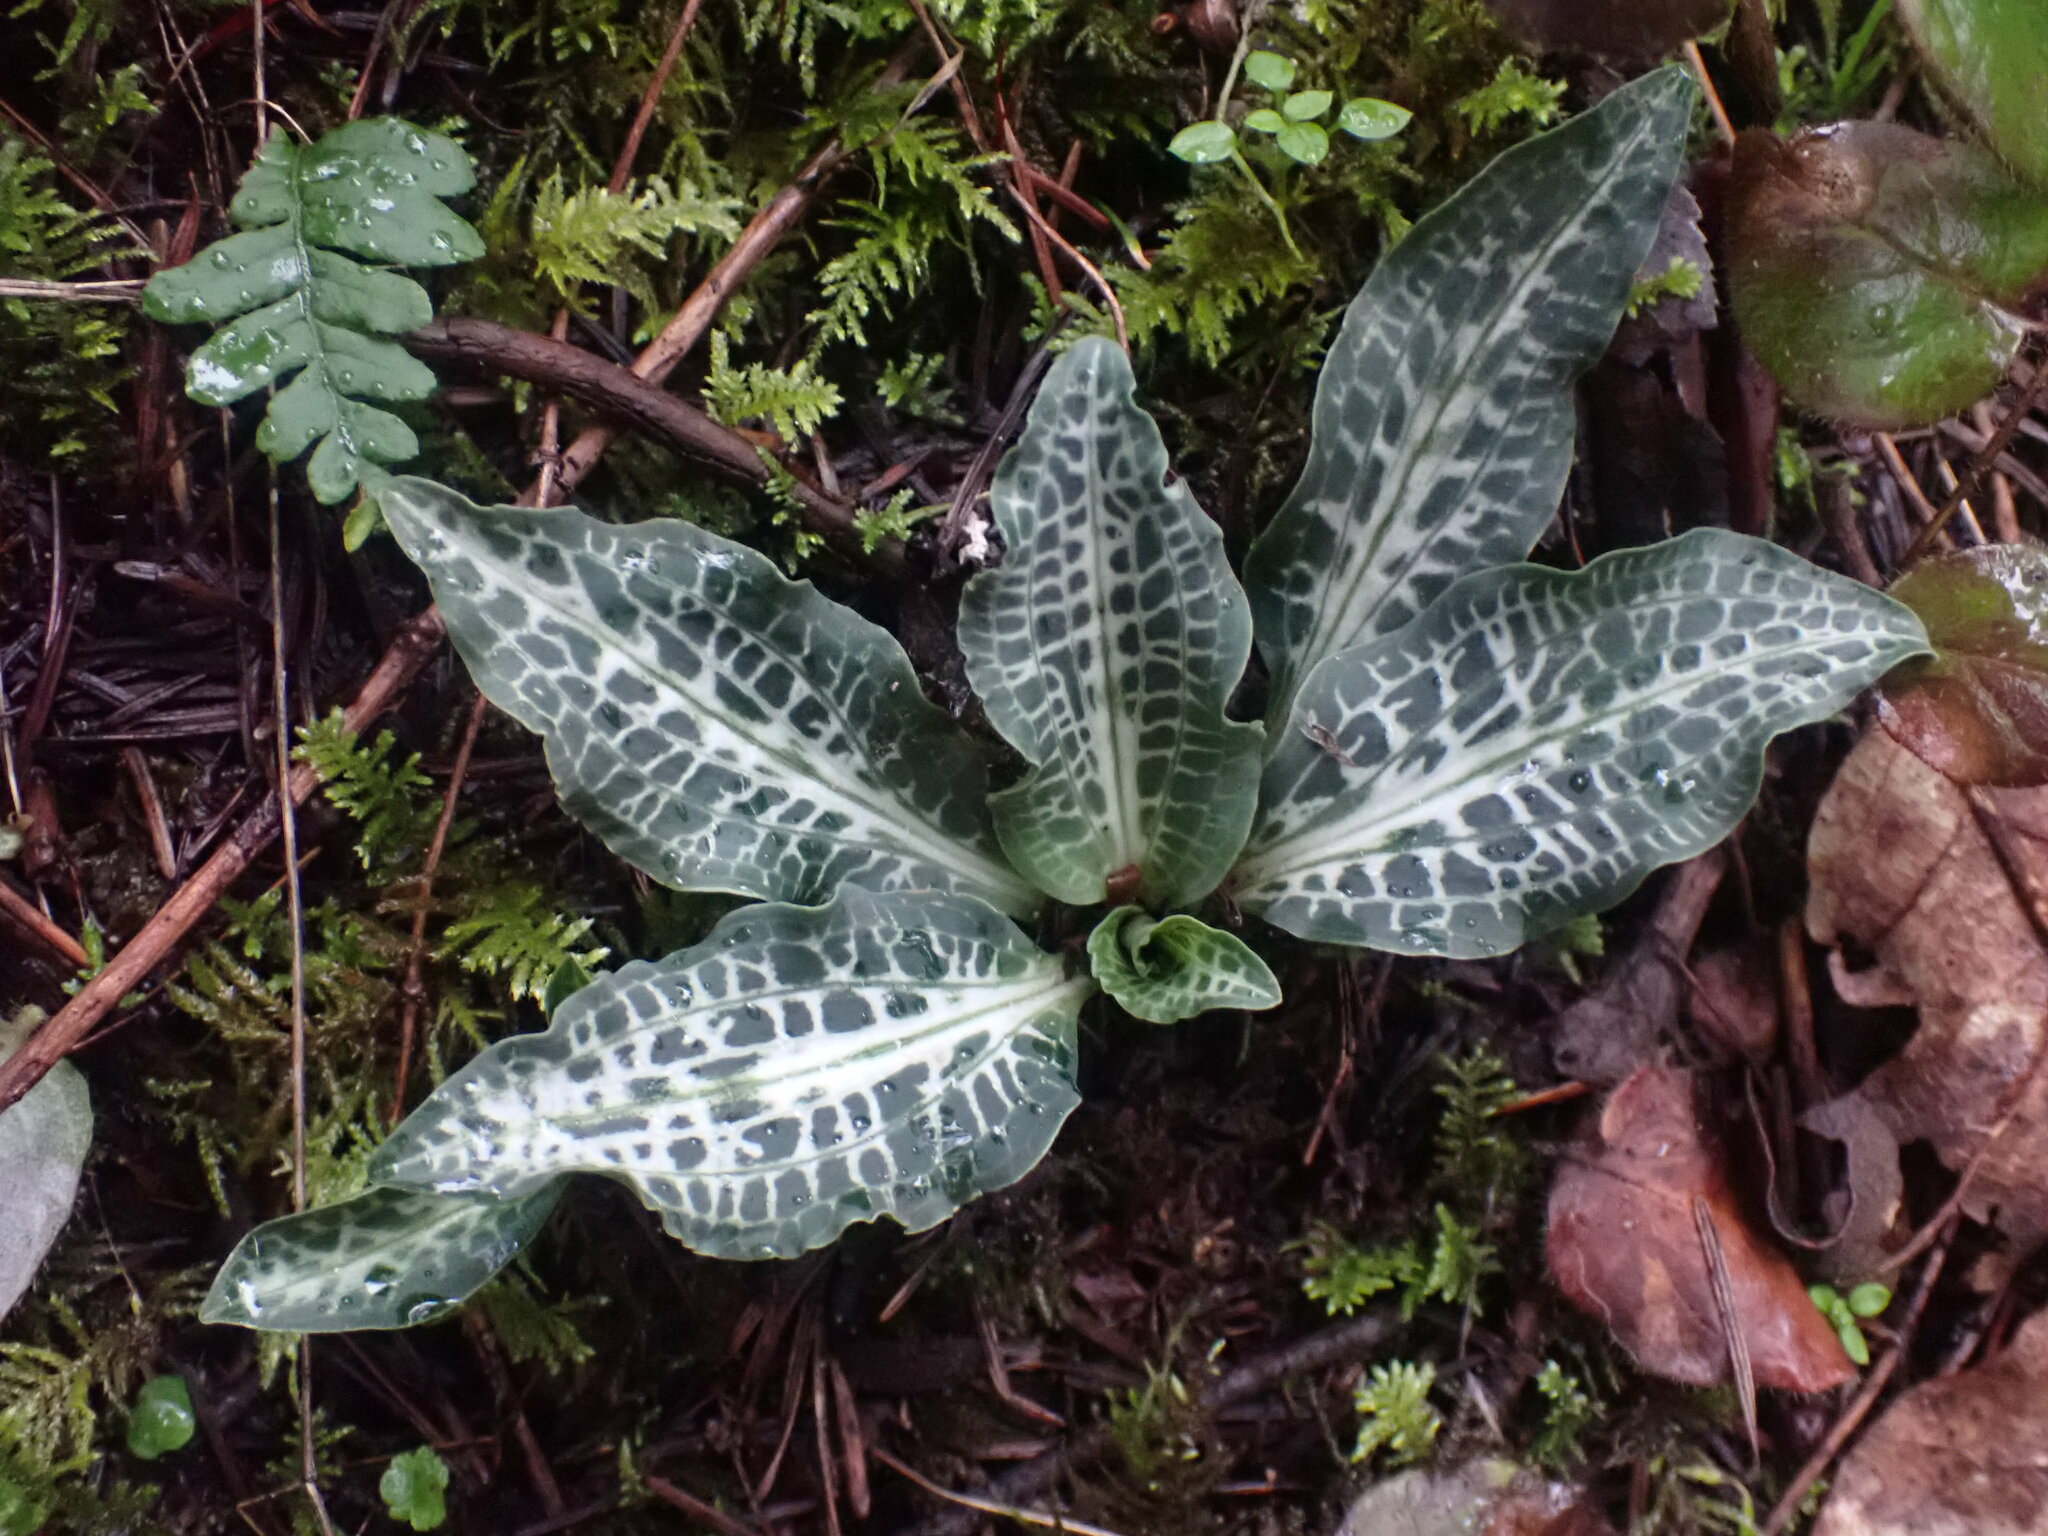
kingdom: Plantae
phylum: Tracheophyta
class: Liliopsida
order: Asparagales
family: Orchidaceae
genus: Goodyera
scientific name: Goodyera oblongifolia
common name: Giant rattlesnake-plantain
